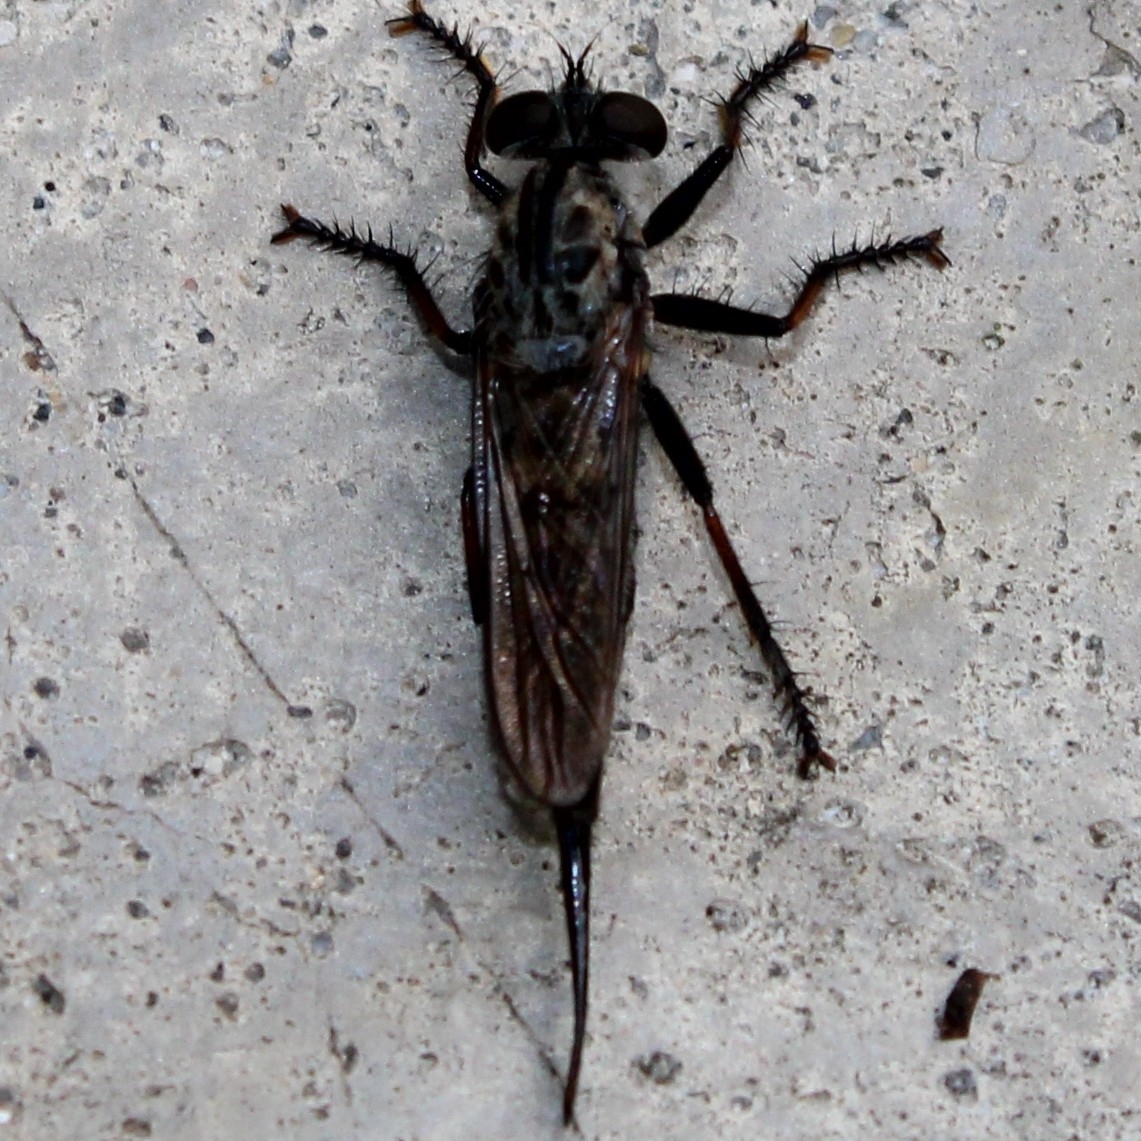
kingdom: Animalia
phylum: Arthropoda
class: Insecta
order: Diptera
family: Asilidae
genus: Efferia
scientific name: Efferia aestuans
